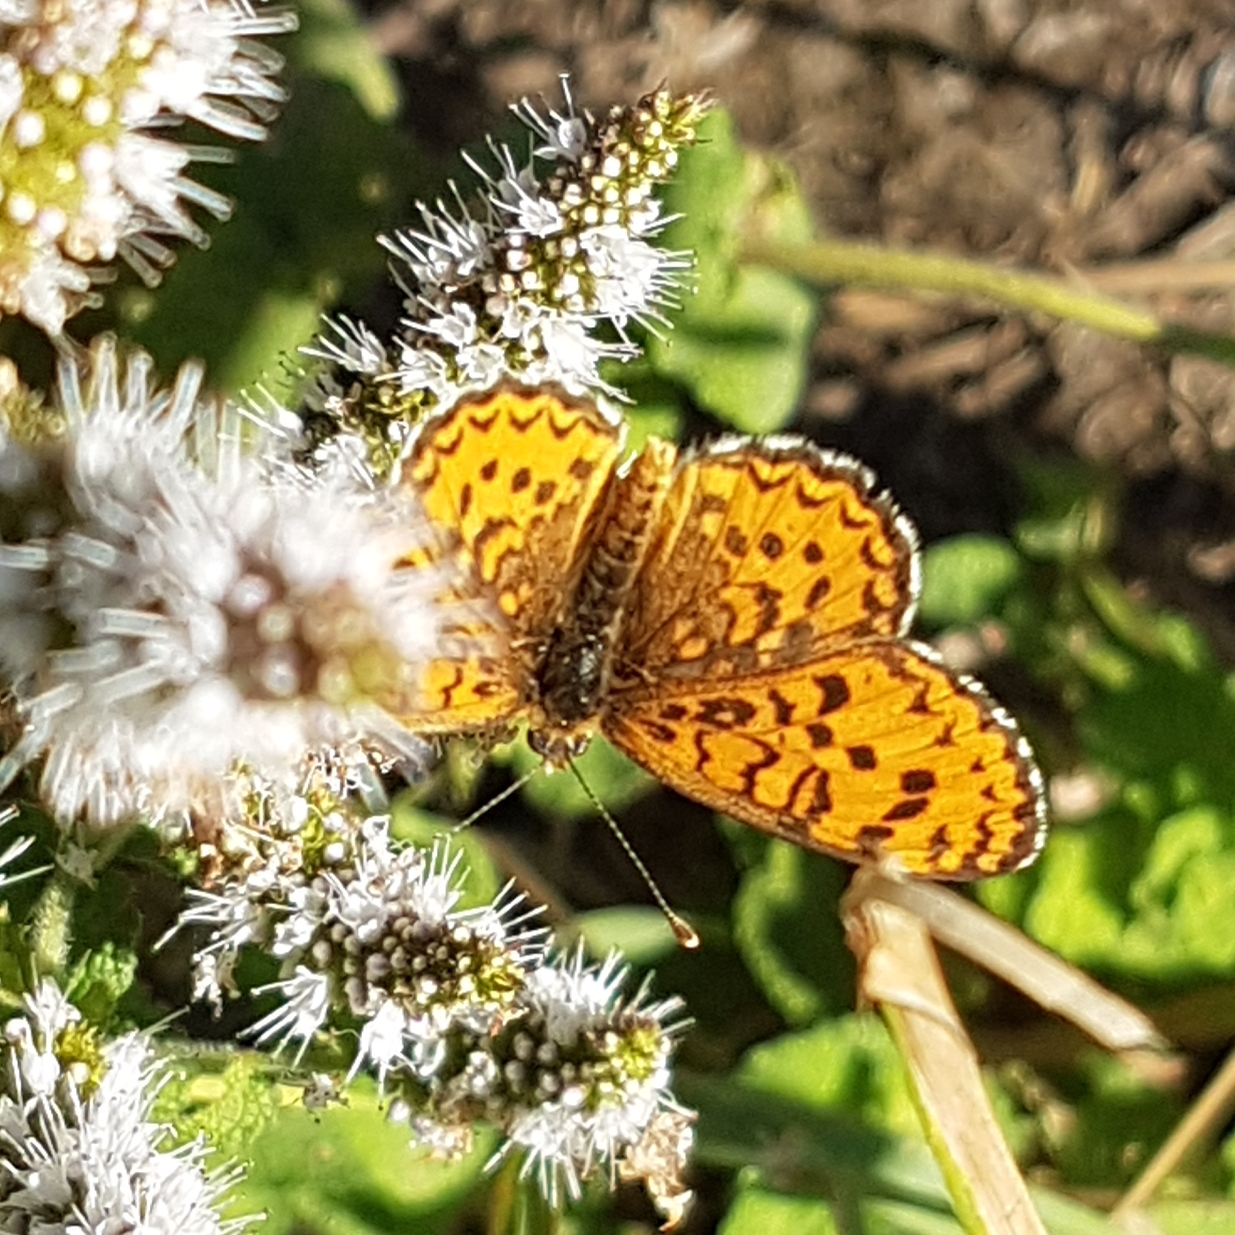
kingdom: Animalia
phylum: Arthropoda
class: Insecta
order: Lepidoptera
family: Nymphalidae
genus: Melitaea
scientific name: Melitaea trivia
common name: Lesser spotted fritillary
